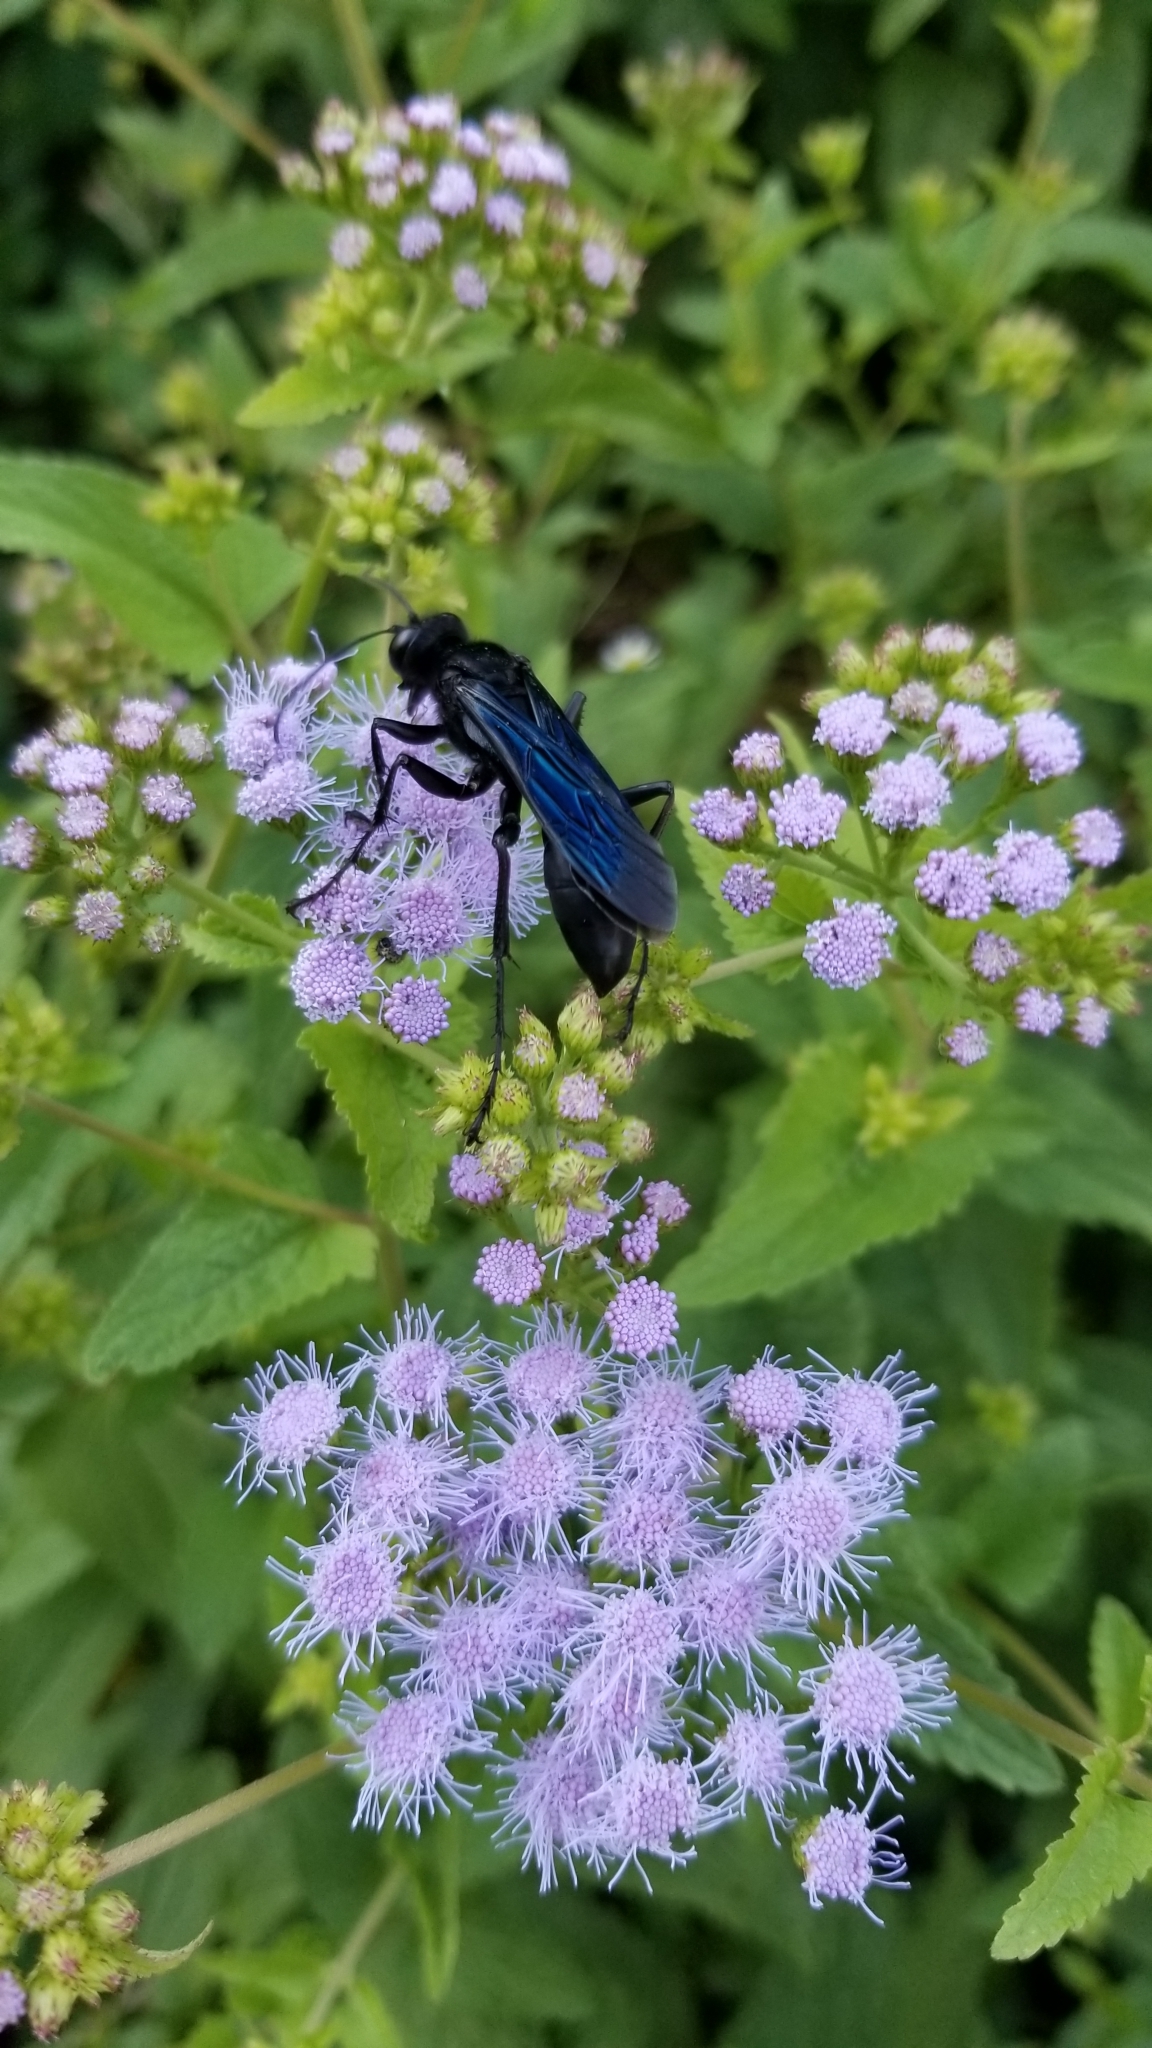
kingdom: Animalia
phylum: Arthropoda
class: Insecta
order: Hymenoptera
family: Sphecidae
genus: Sphex
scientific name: Sphex pensylvanicus
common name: Great black digger wasp
